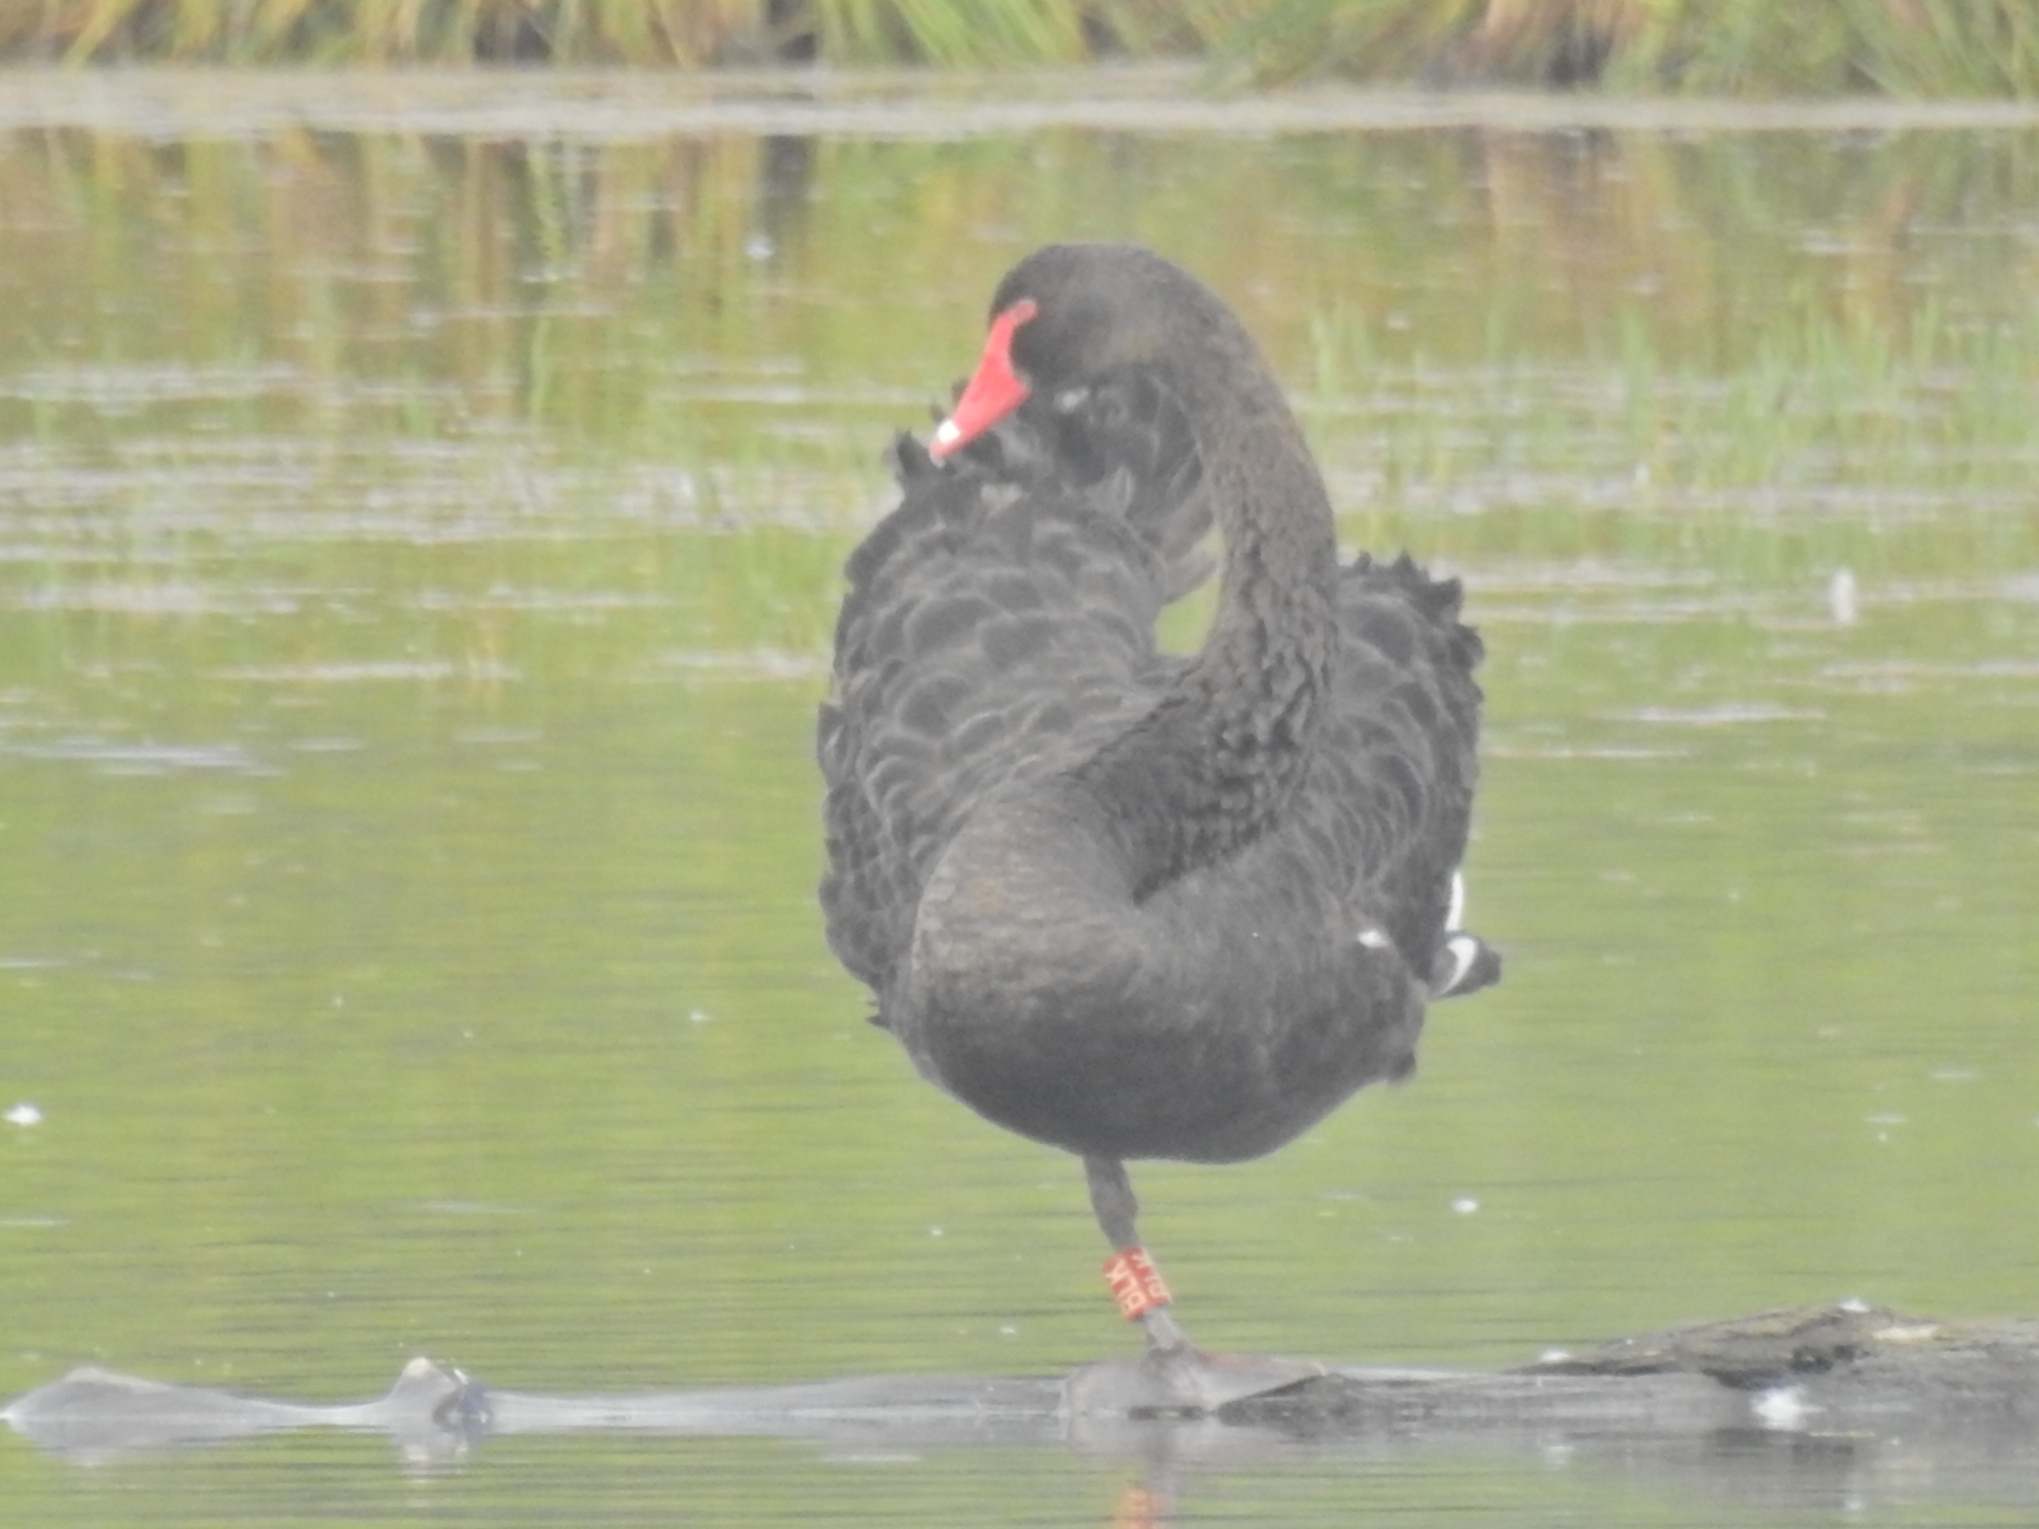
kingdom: Animalia
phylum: Chordata
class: Aves
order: Anseriformes
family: Anatidae
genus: Cygnus
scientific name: Cygnus atratus
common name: Black swan
